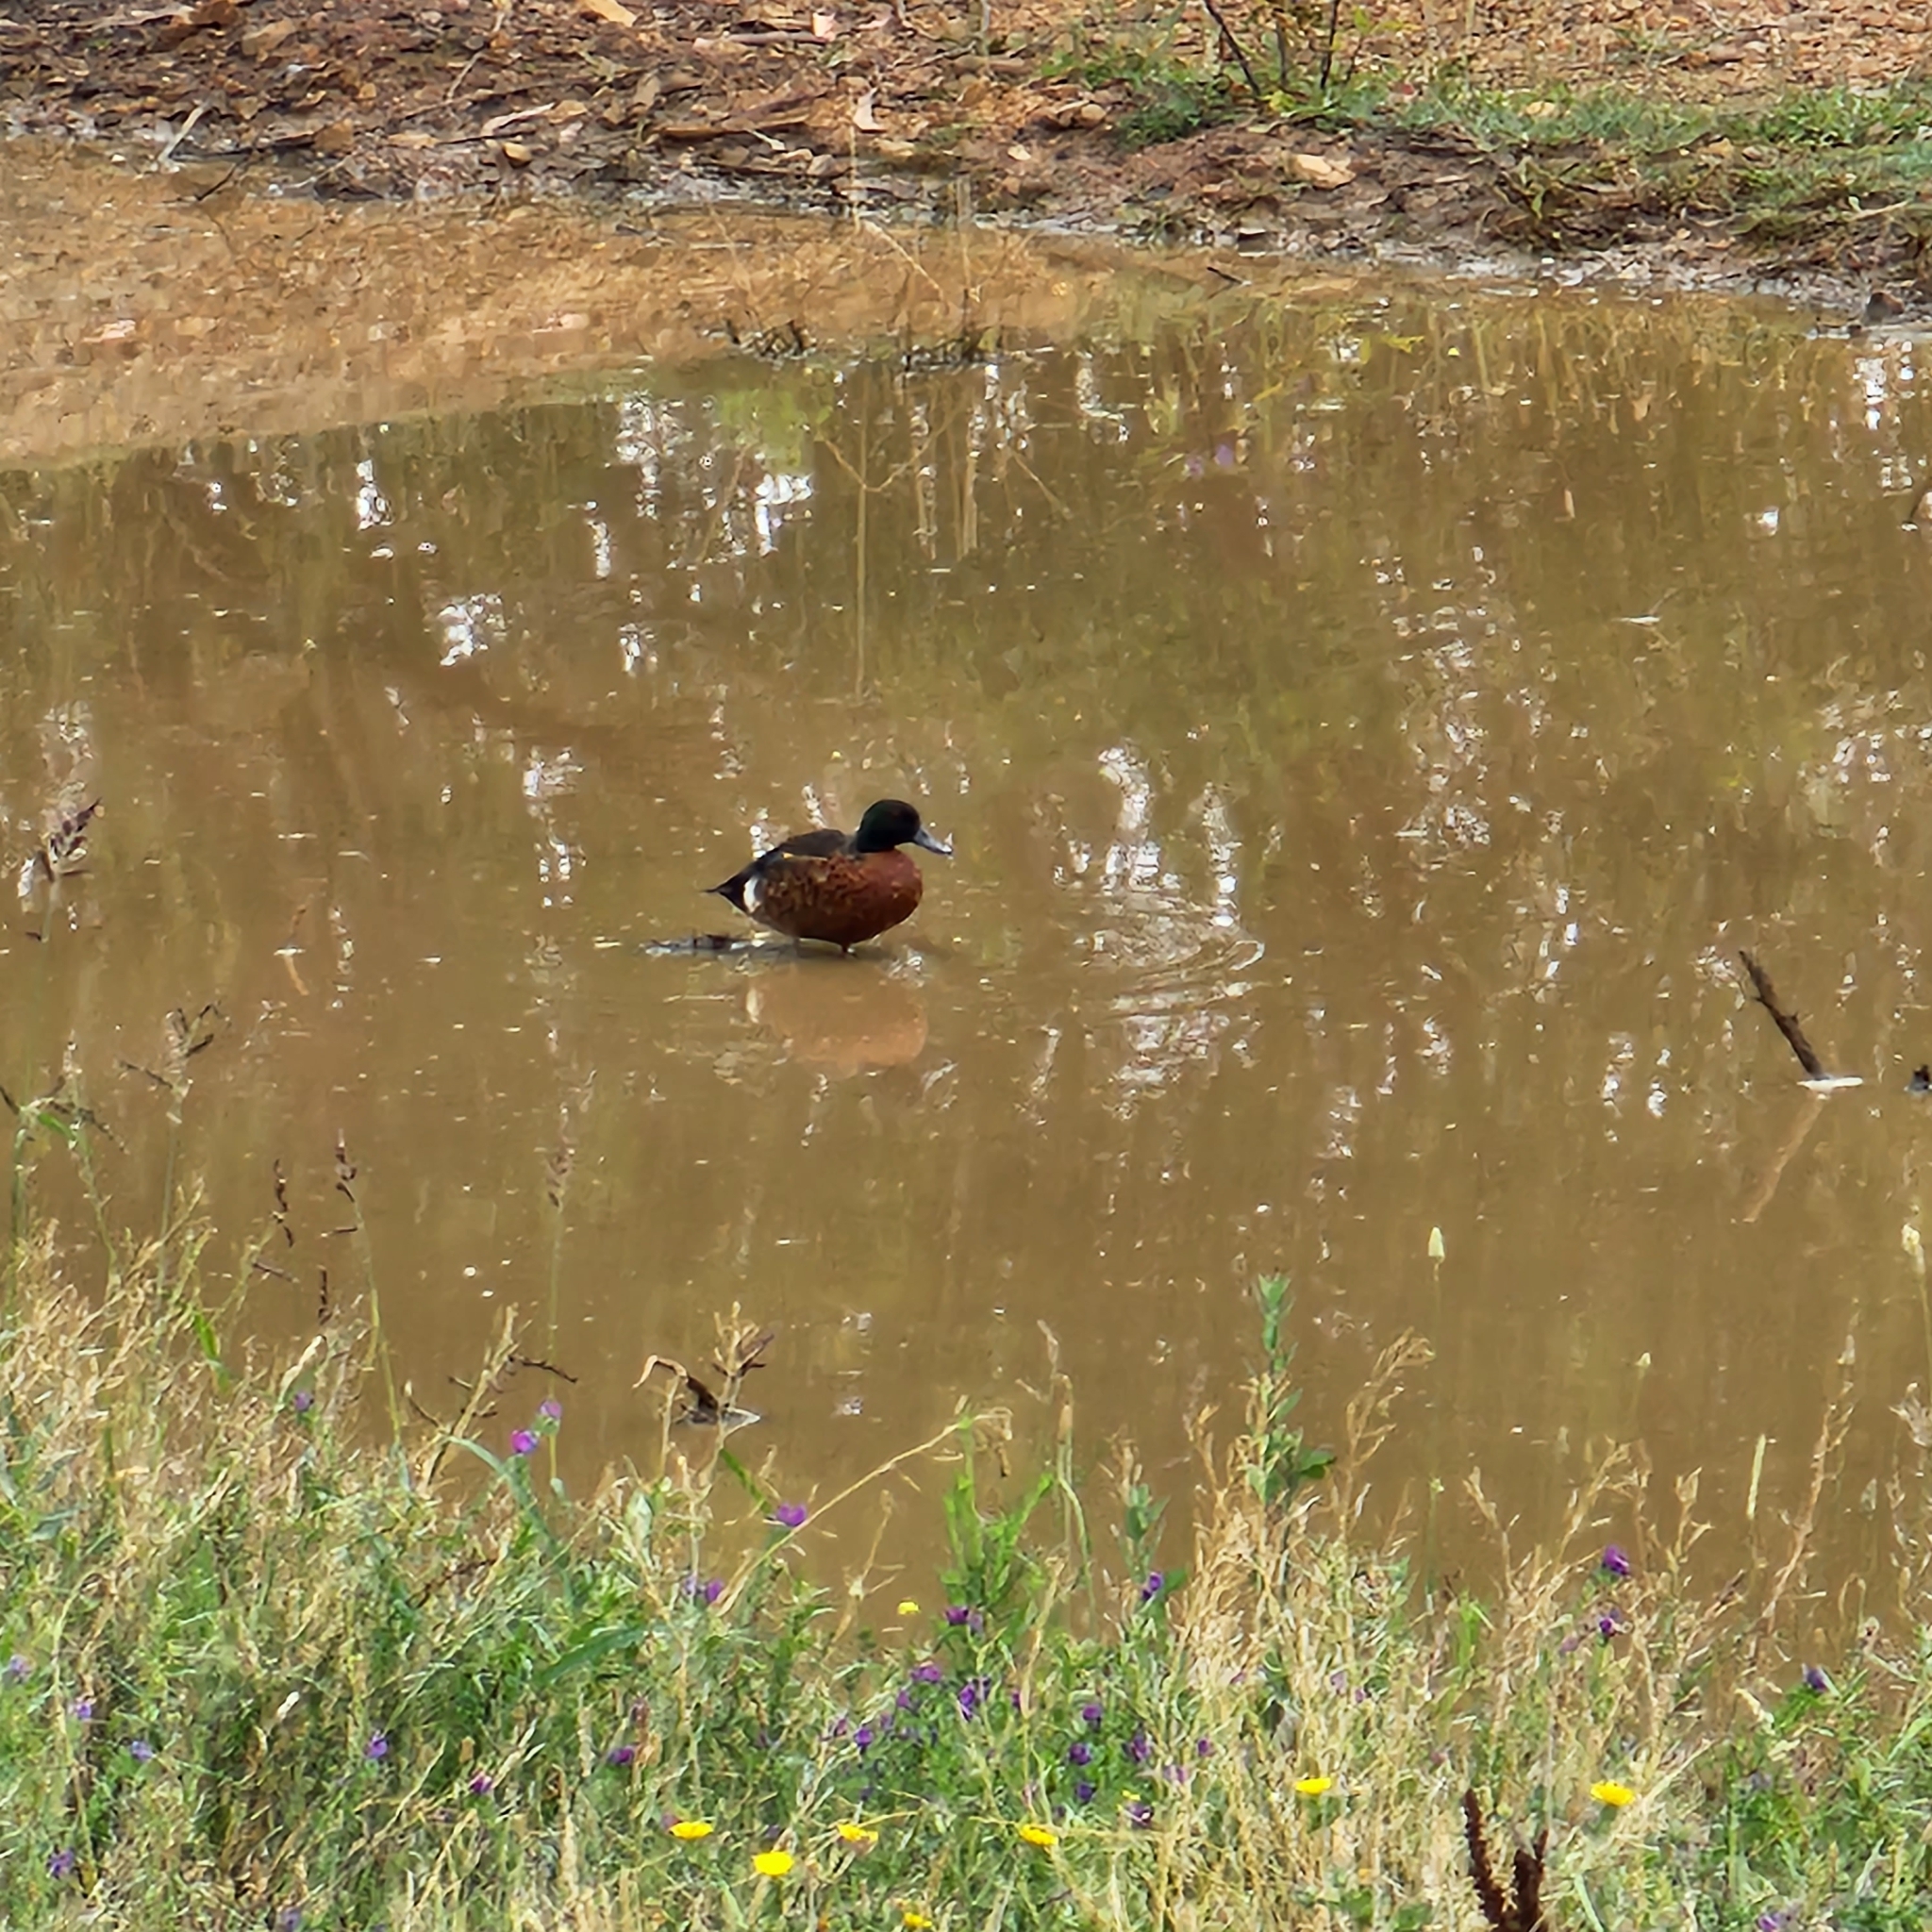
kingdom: Animalia
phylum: Chordata
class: Aves
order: Anseriformes
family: Anatidae
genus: Anas
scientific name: Anas castanea
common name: Chestnut teal
